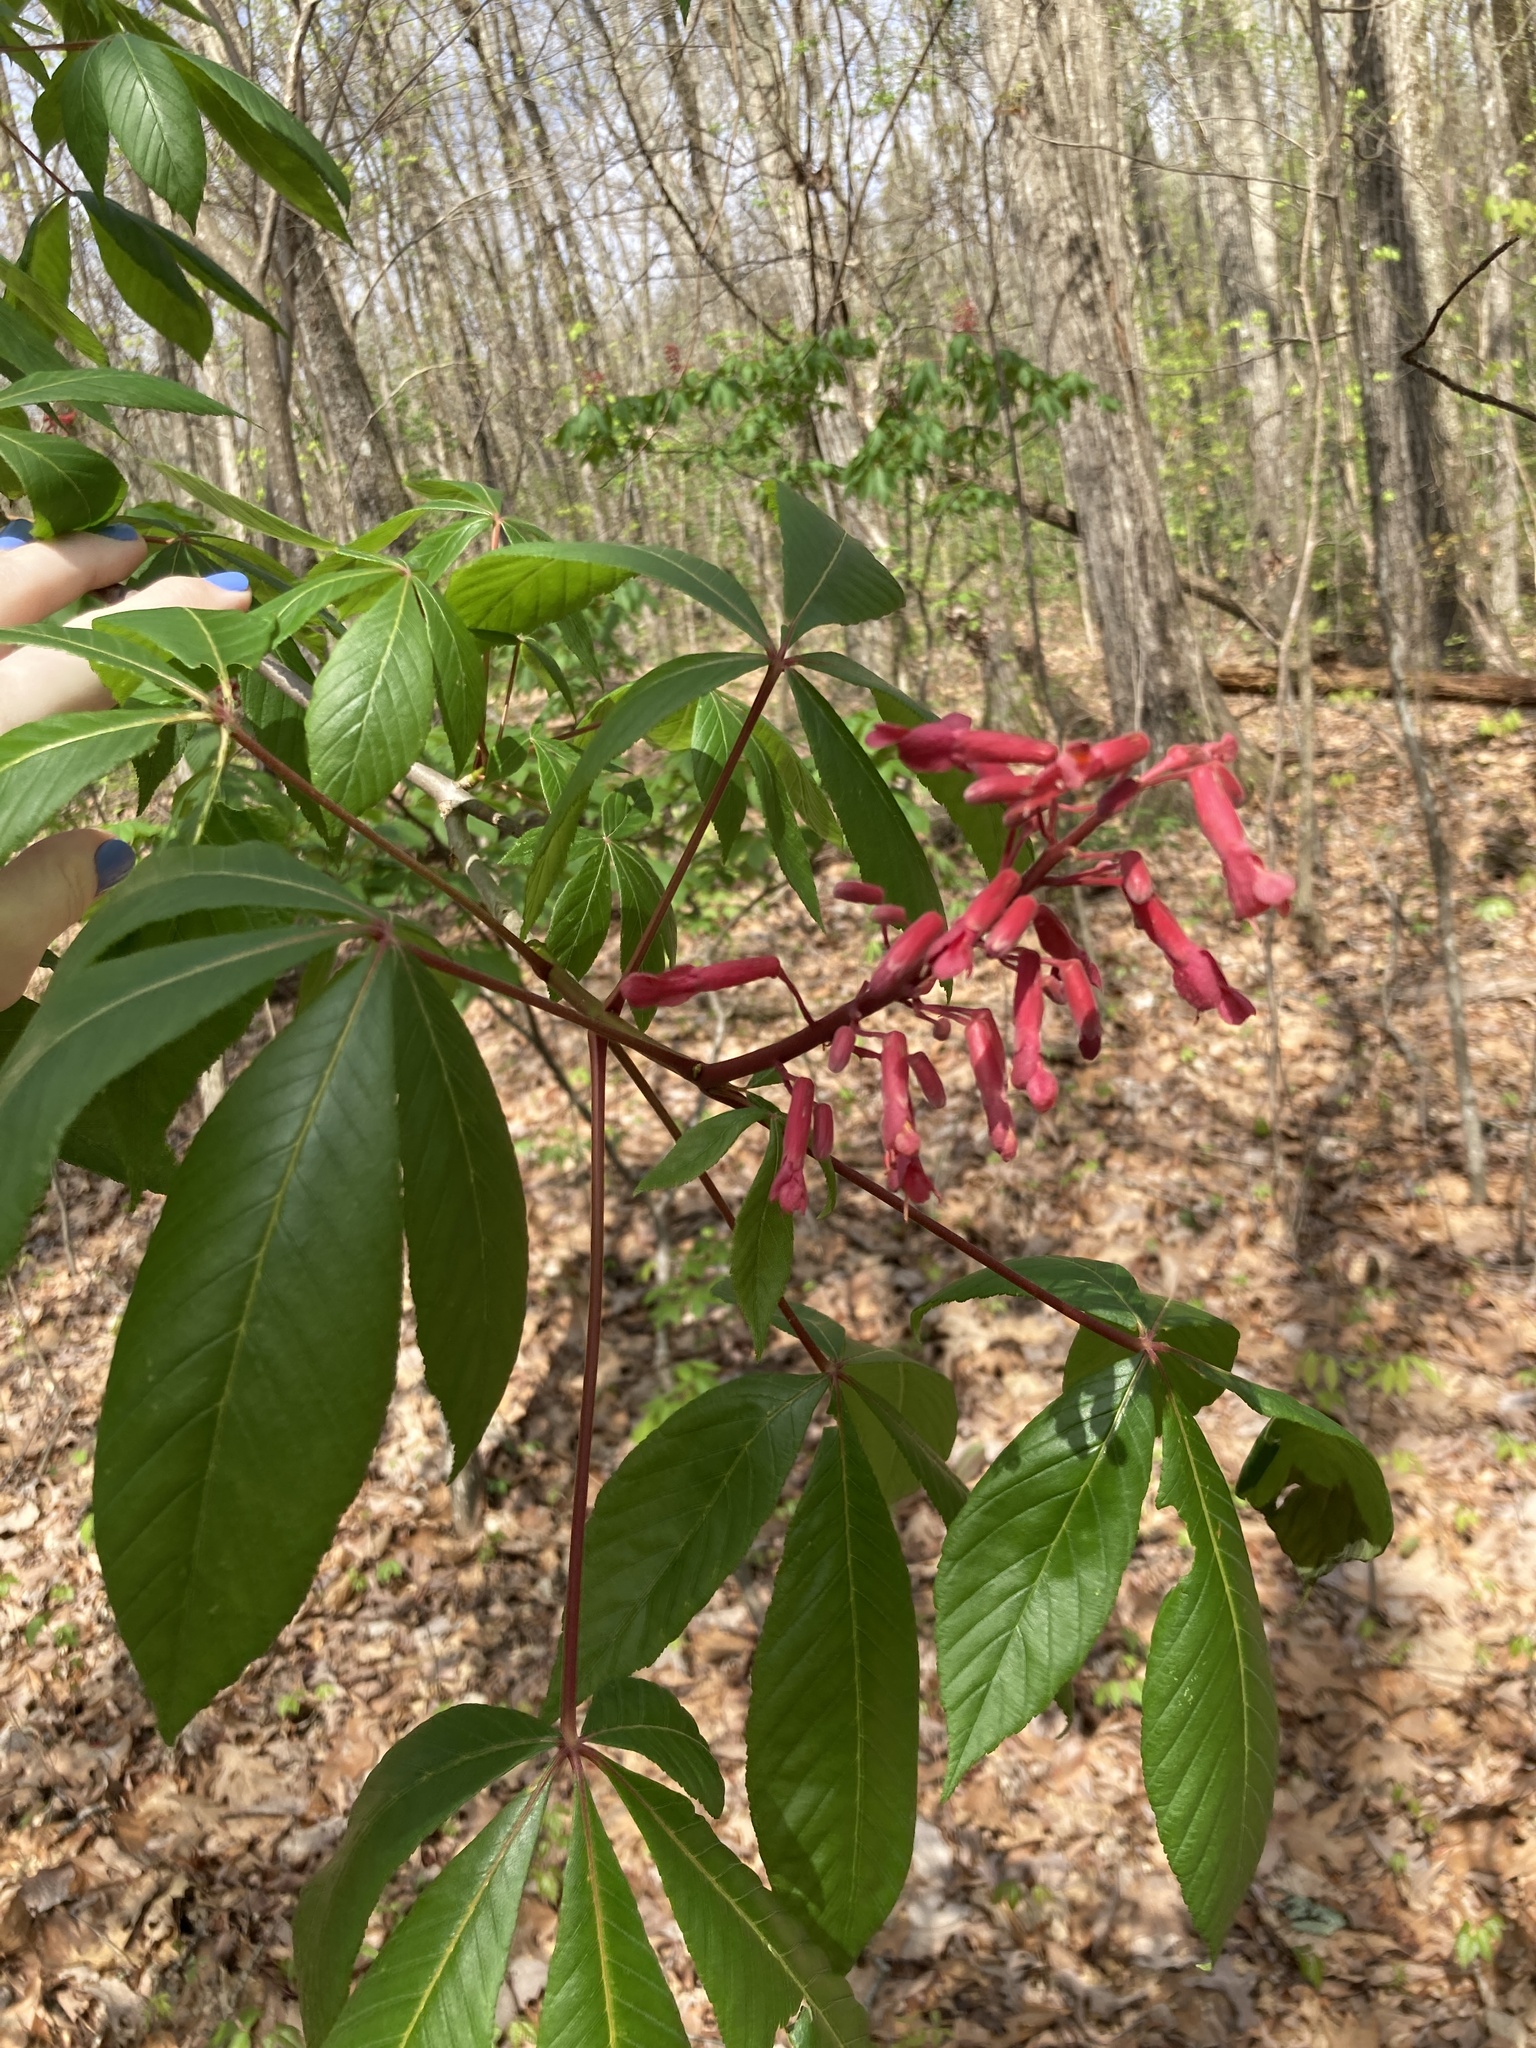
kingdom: Plantae
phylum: Tracheophyta
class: Magnoliopsida
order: Sapindales
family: Sapindaceae
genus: Aesculus
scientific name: Aesculus pavia
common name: Red buckeye
